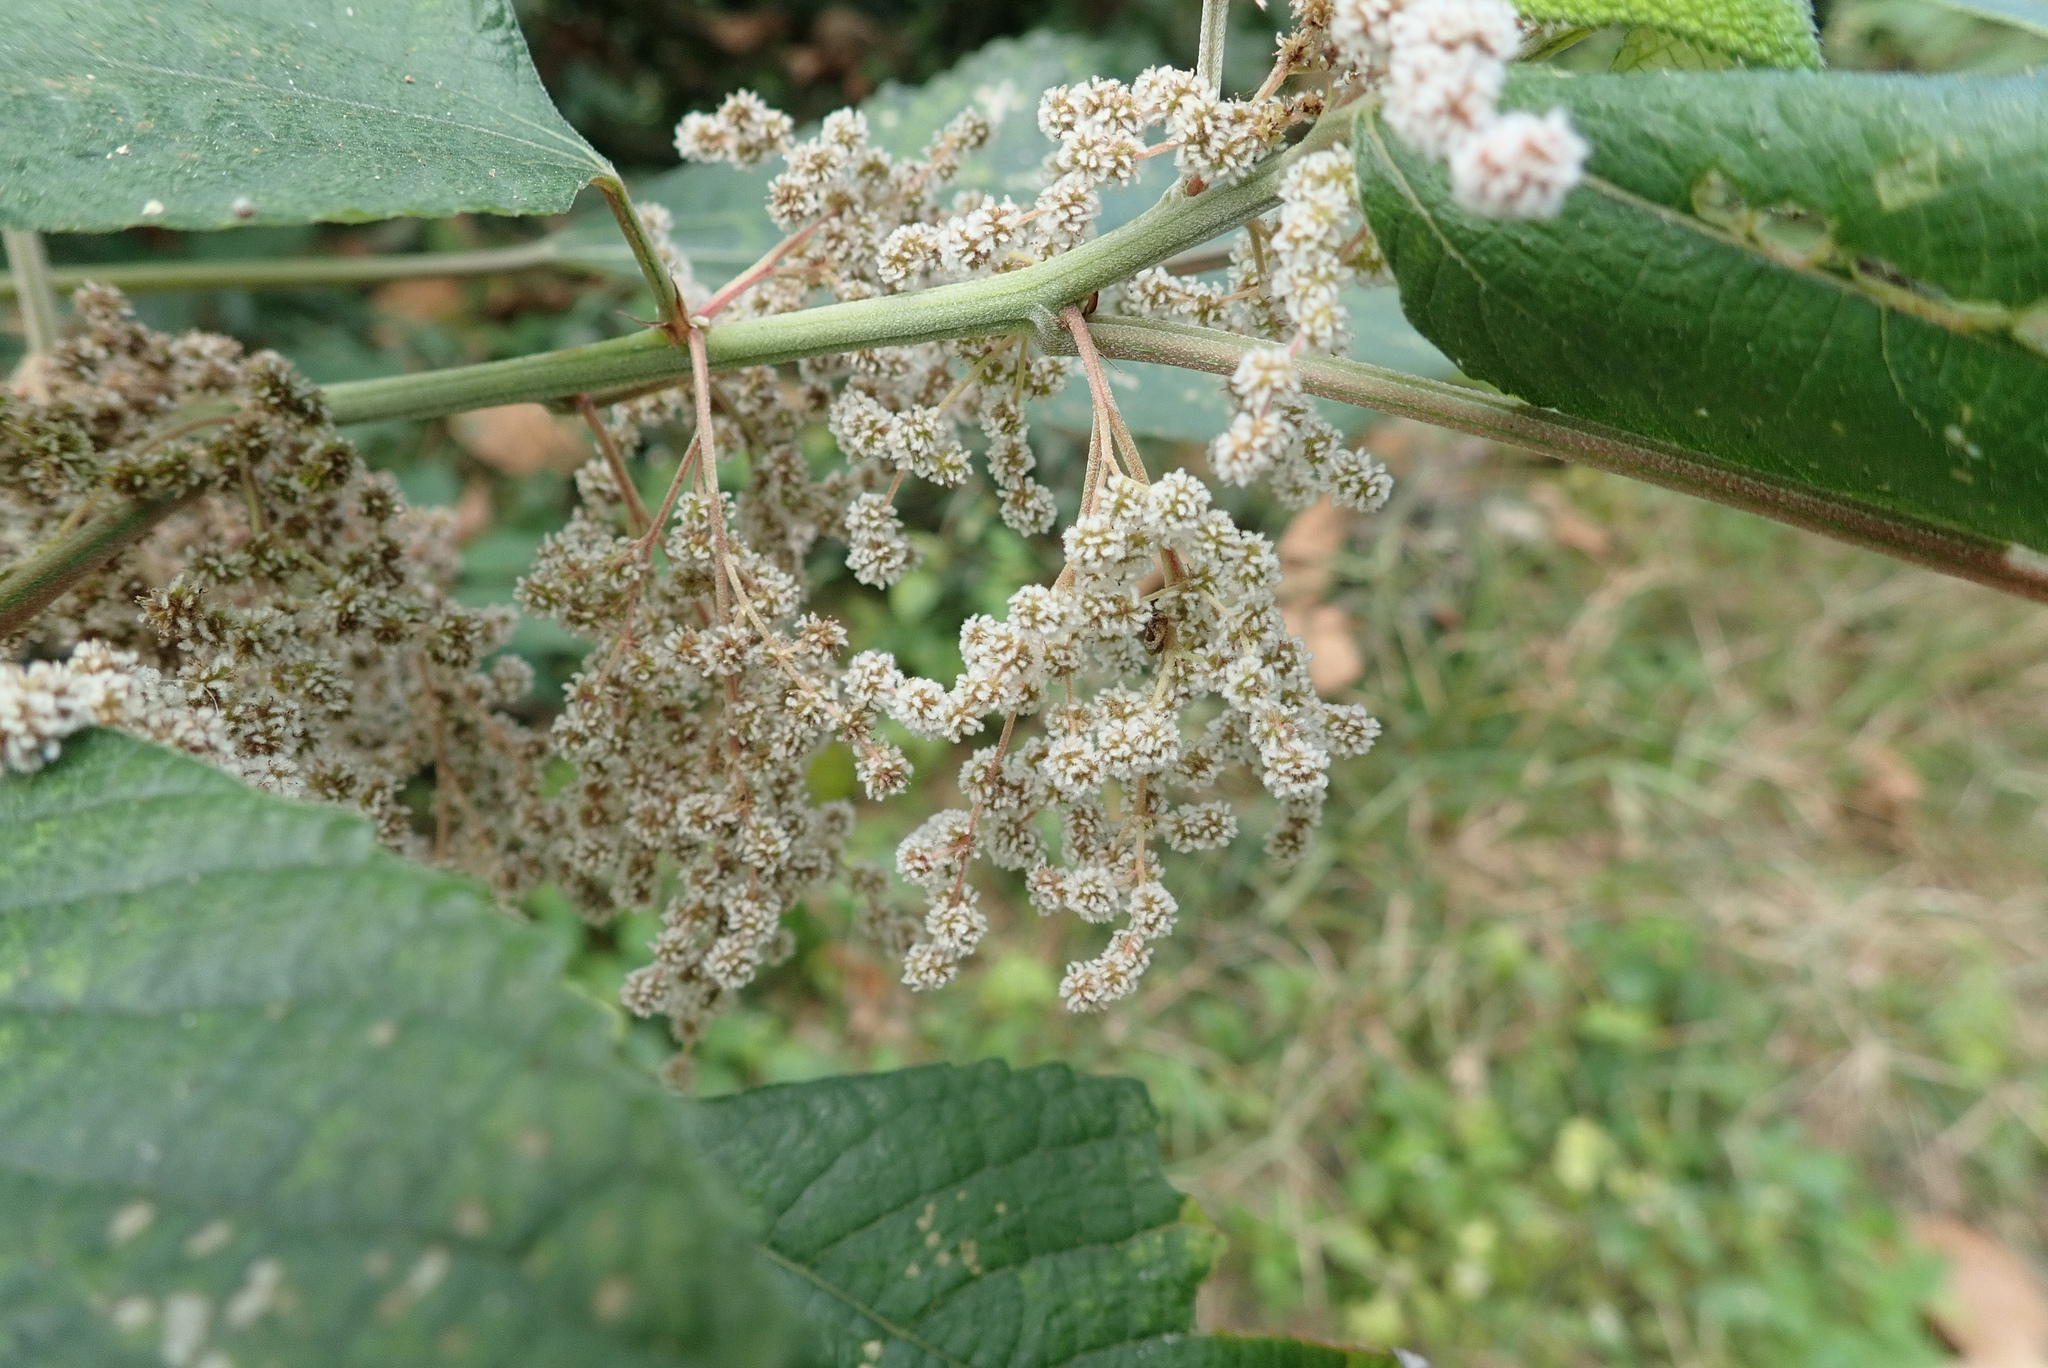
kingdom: Plantae
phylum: Tracheophyta
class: Magnoliopsida
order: Rosales
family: Urticaceae
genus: Boehmeria
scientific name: Boehmeria nivea
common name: Ramie chinese grass
